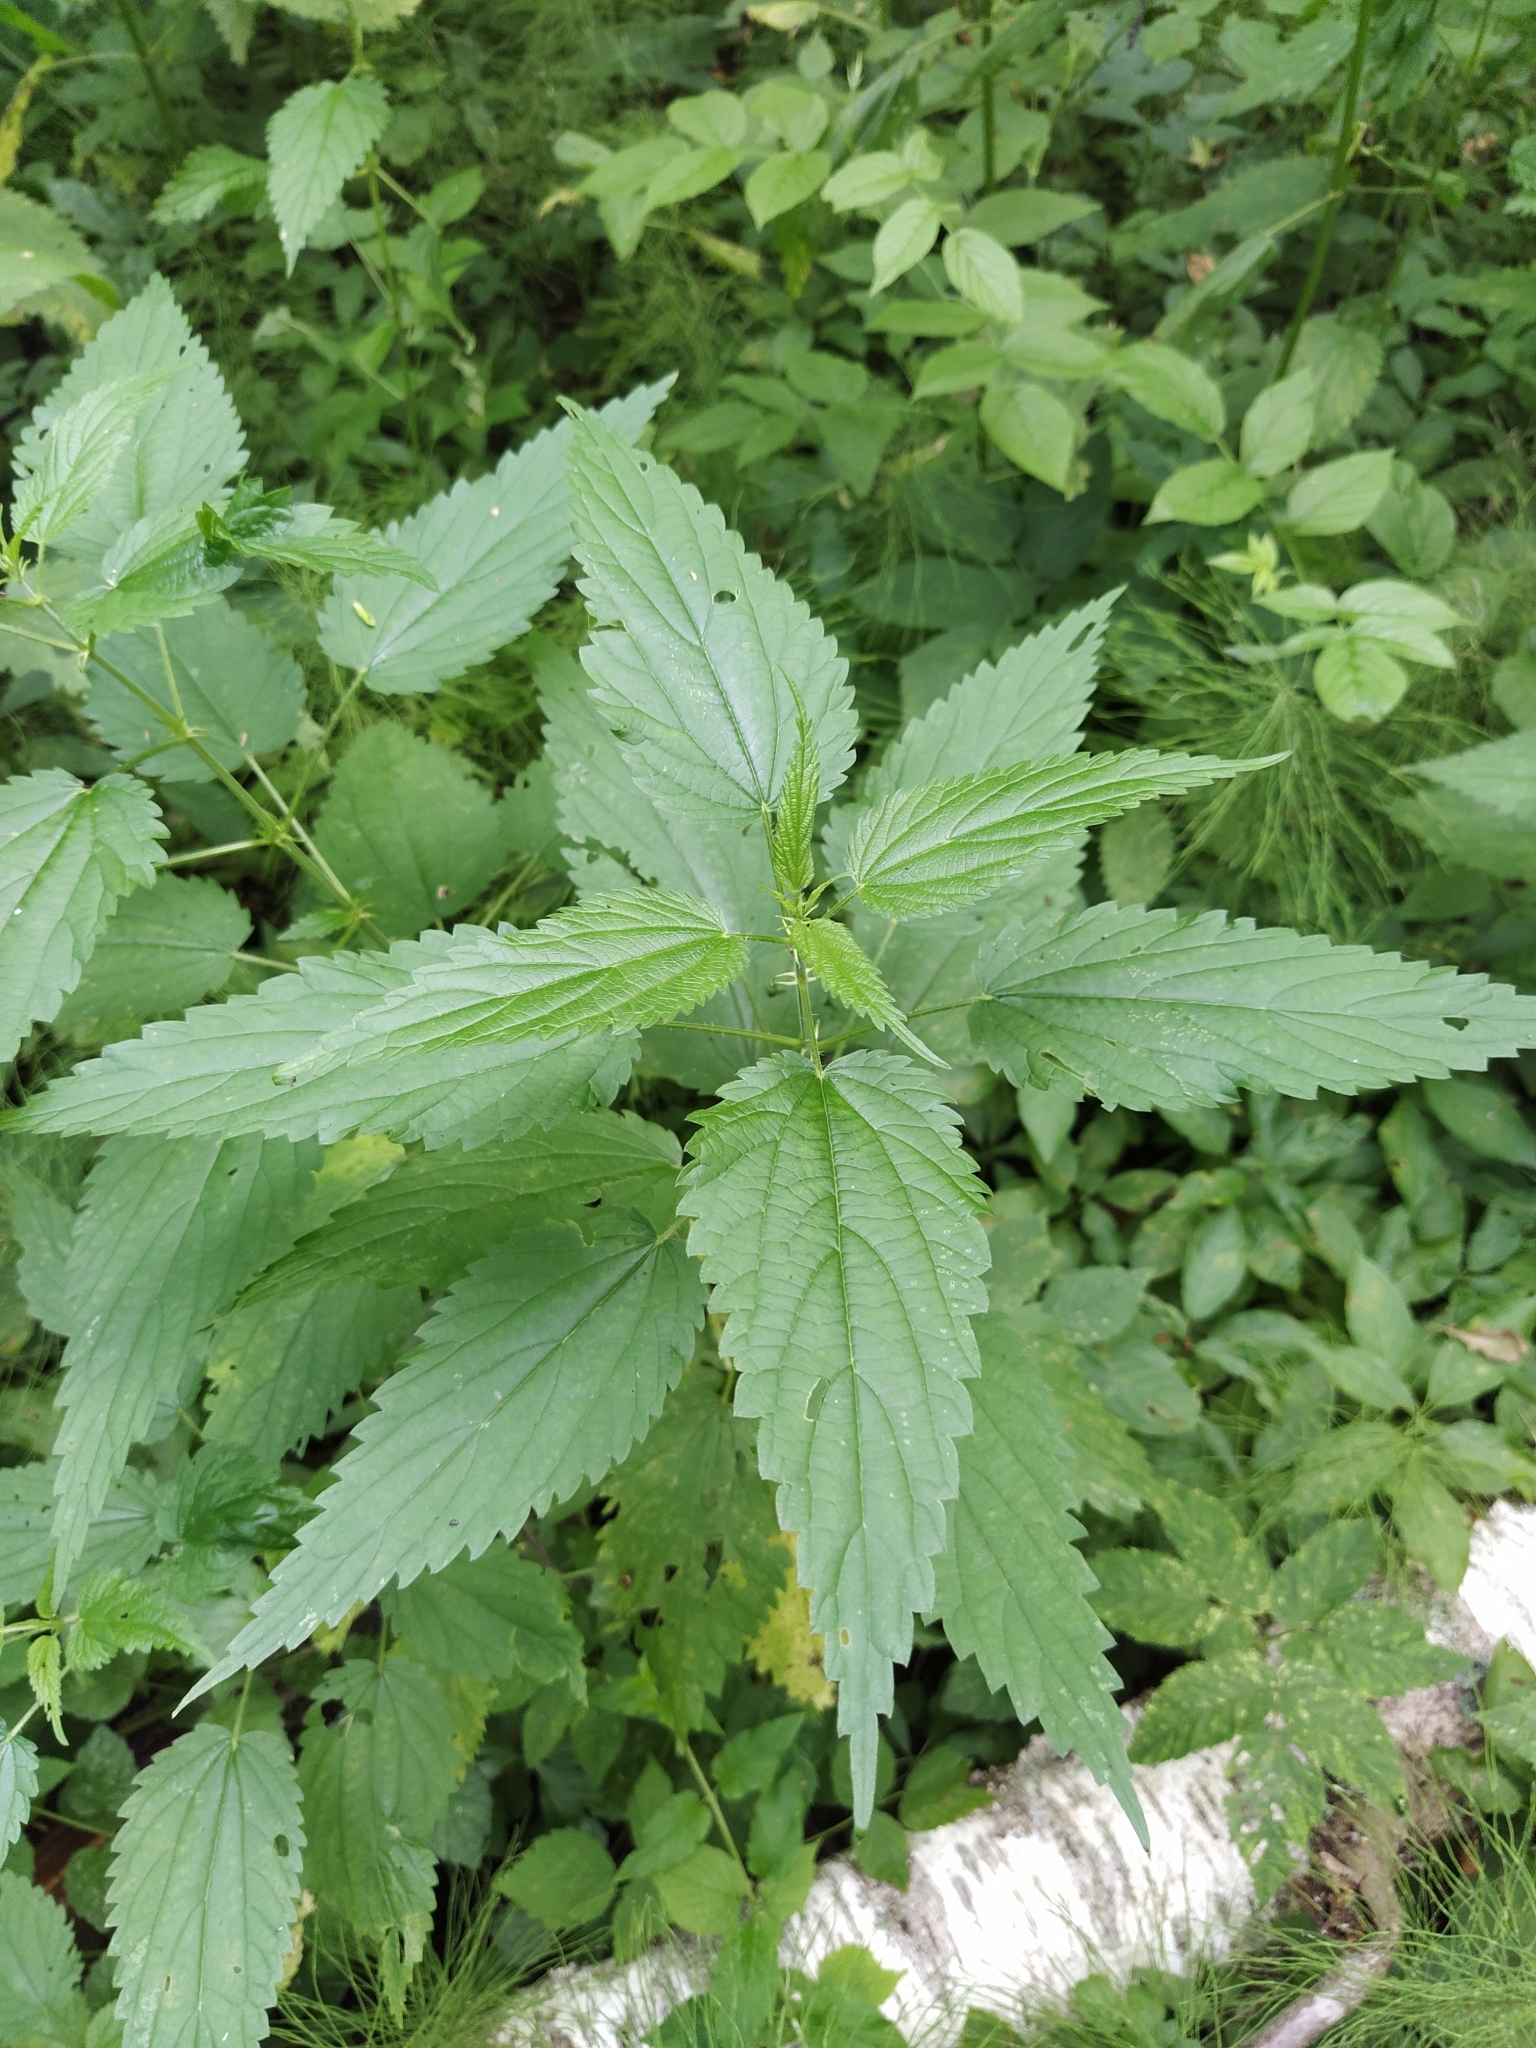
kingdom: Plantae
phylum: Tracheophyta
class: Magnoliopsida
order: Rosales
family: Urticaceae
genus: Urtica
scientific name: Urtica dioica
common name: Common nettle
